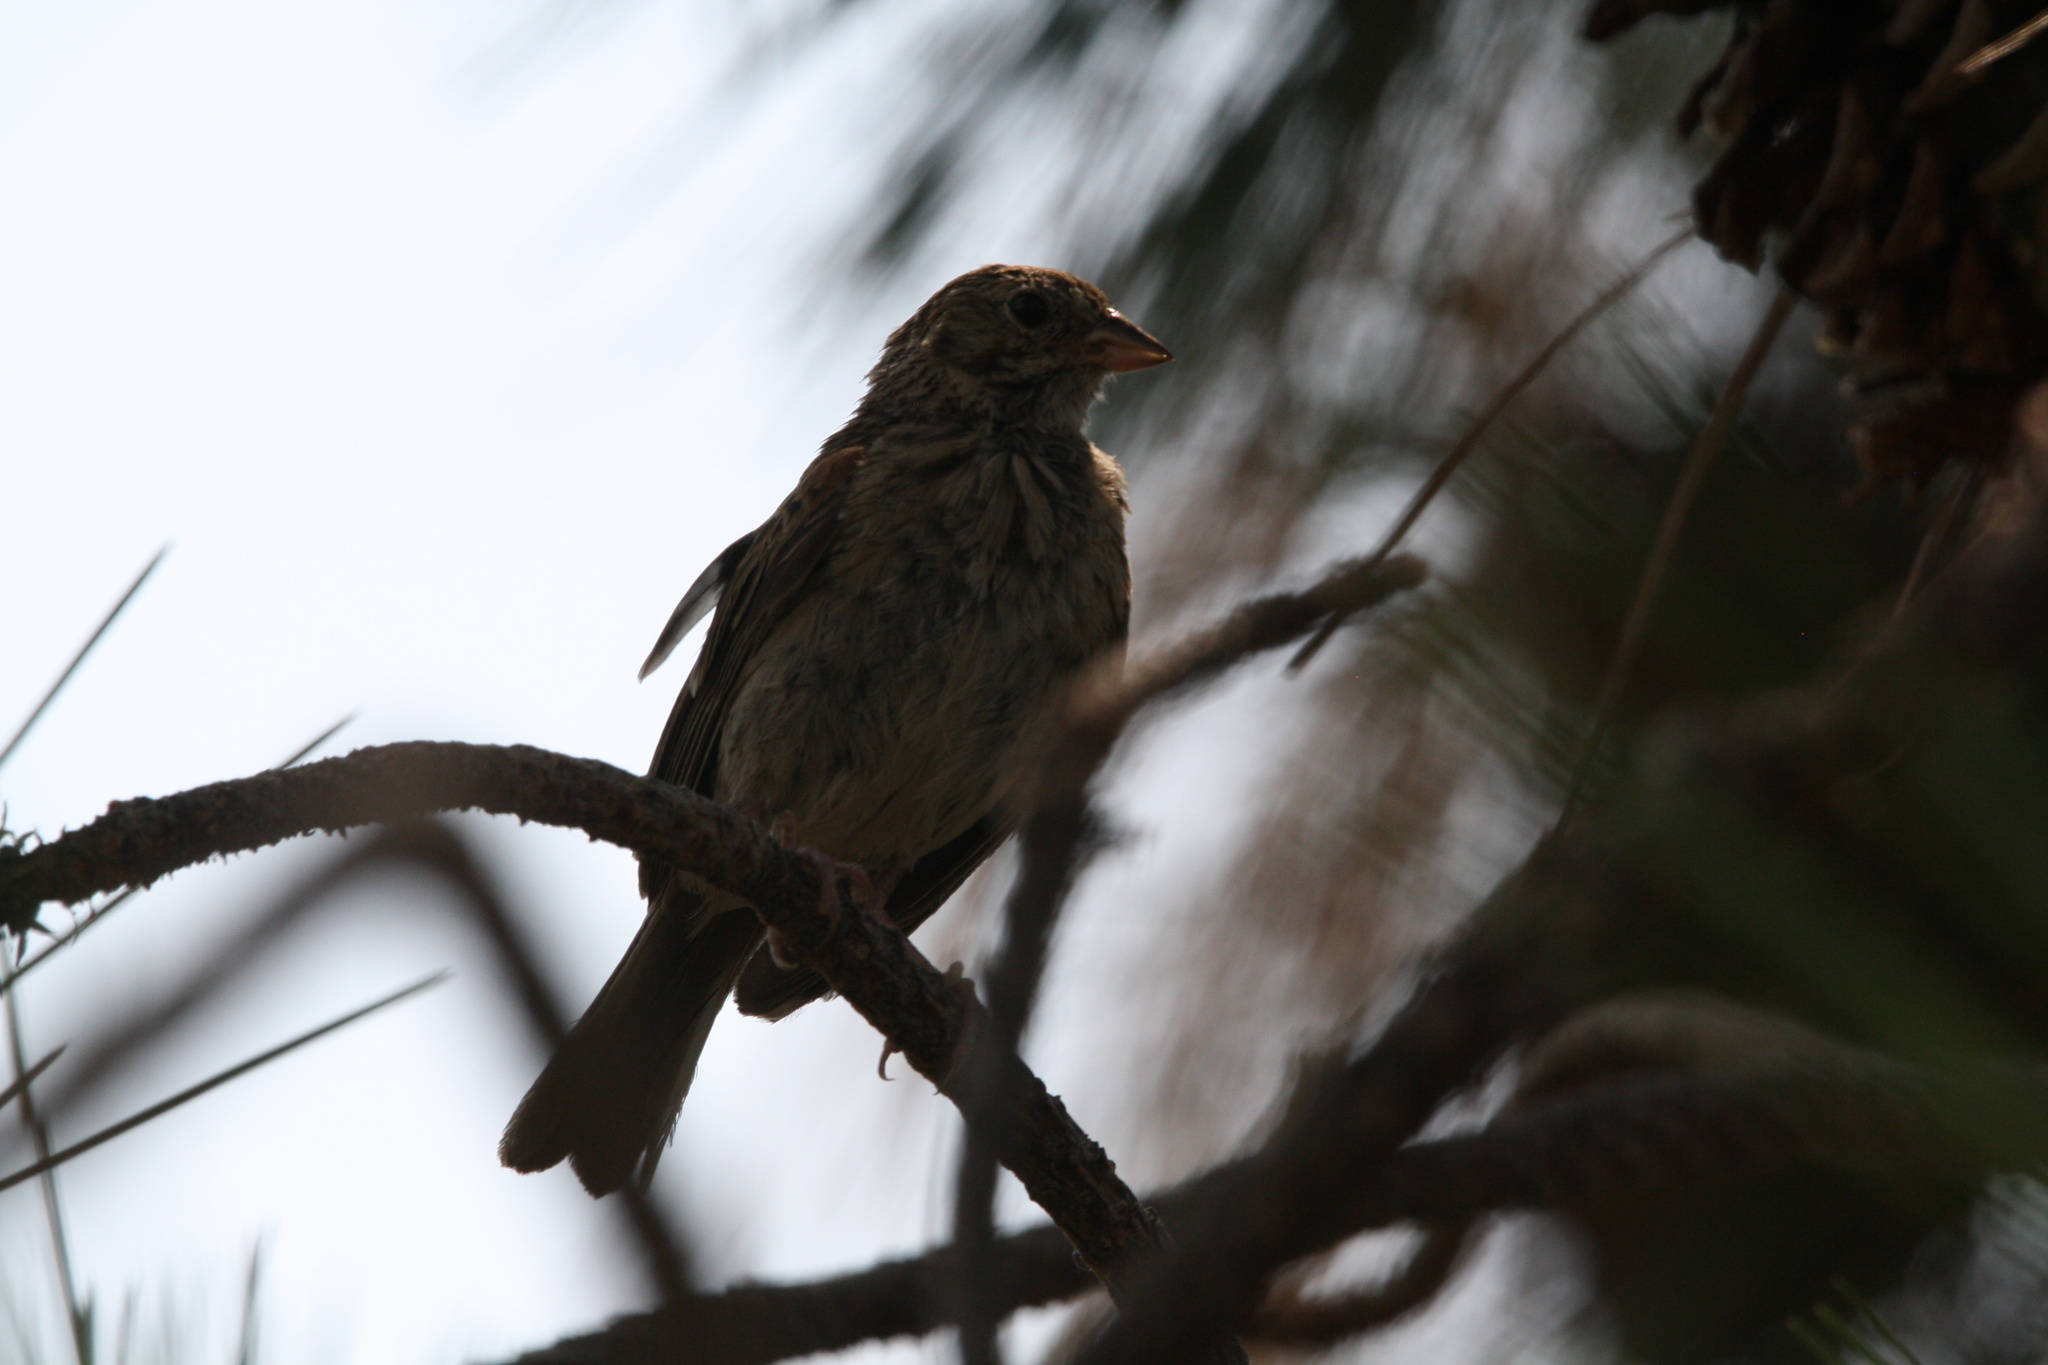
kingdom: Animalia
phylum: Chordata
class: Aves
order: Passeriformes
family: Passerellidae
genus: Pooecetes
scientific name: Pooecetes gramineus
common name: Vesper sparrow
